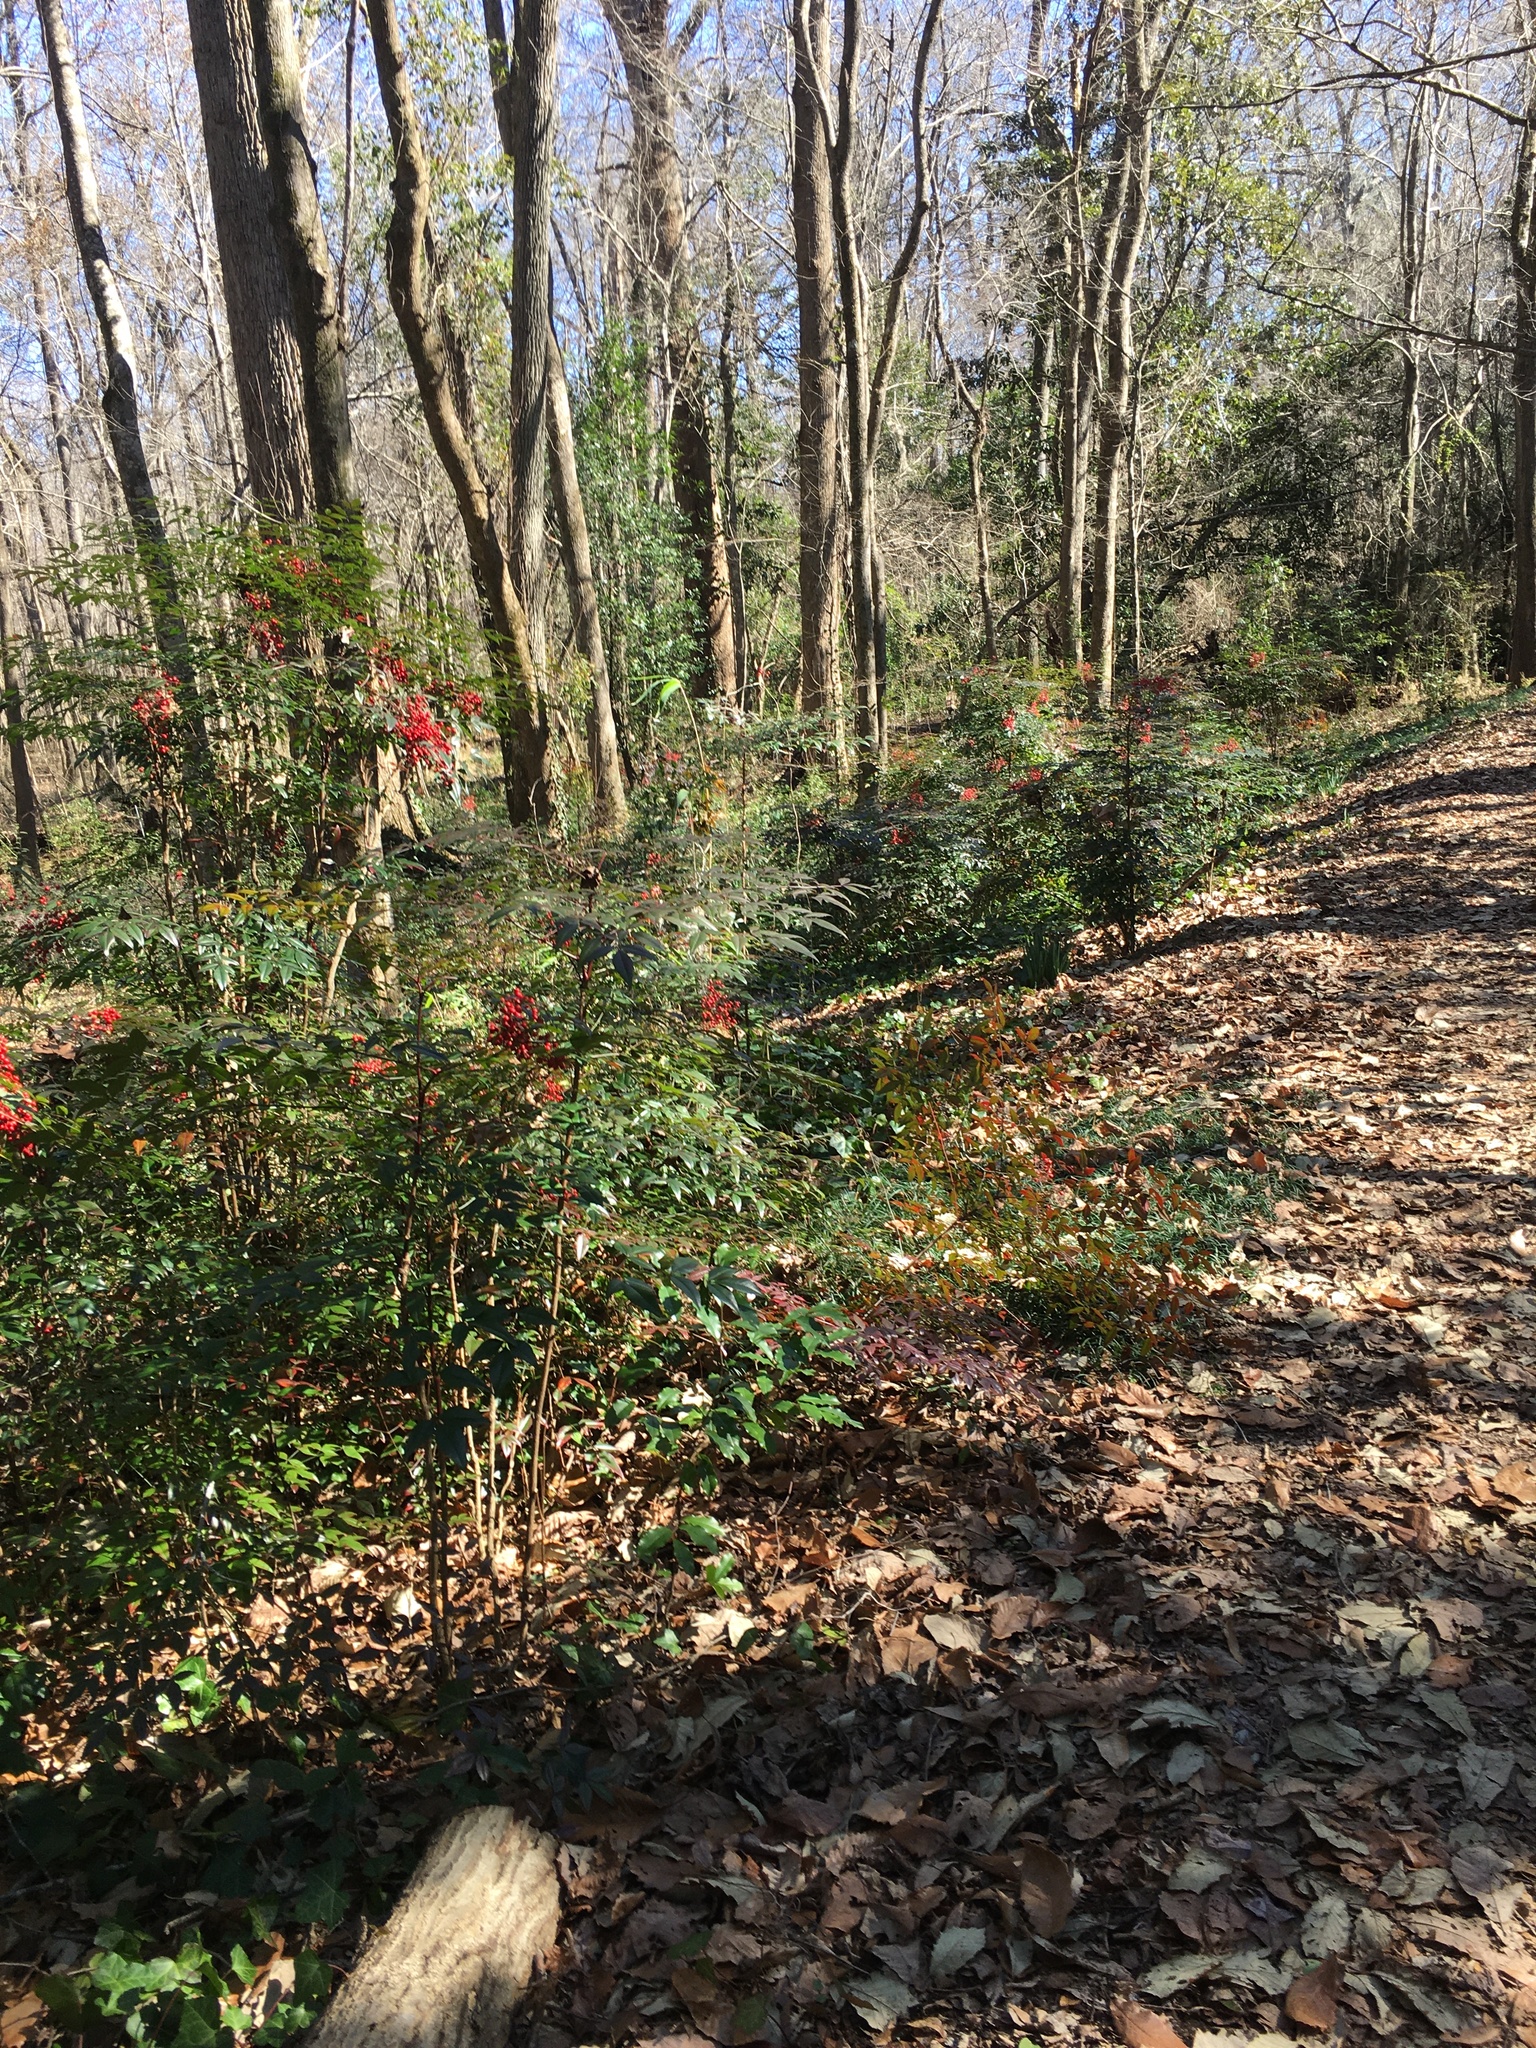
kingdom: Plantae
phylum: Tracheophyta
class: Magnoliopsida
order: Ranunculales
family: Berberidaceae
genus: Nandina
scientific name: Nandina domestica
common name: Sacred bamboo
